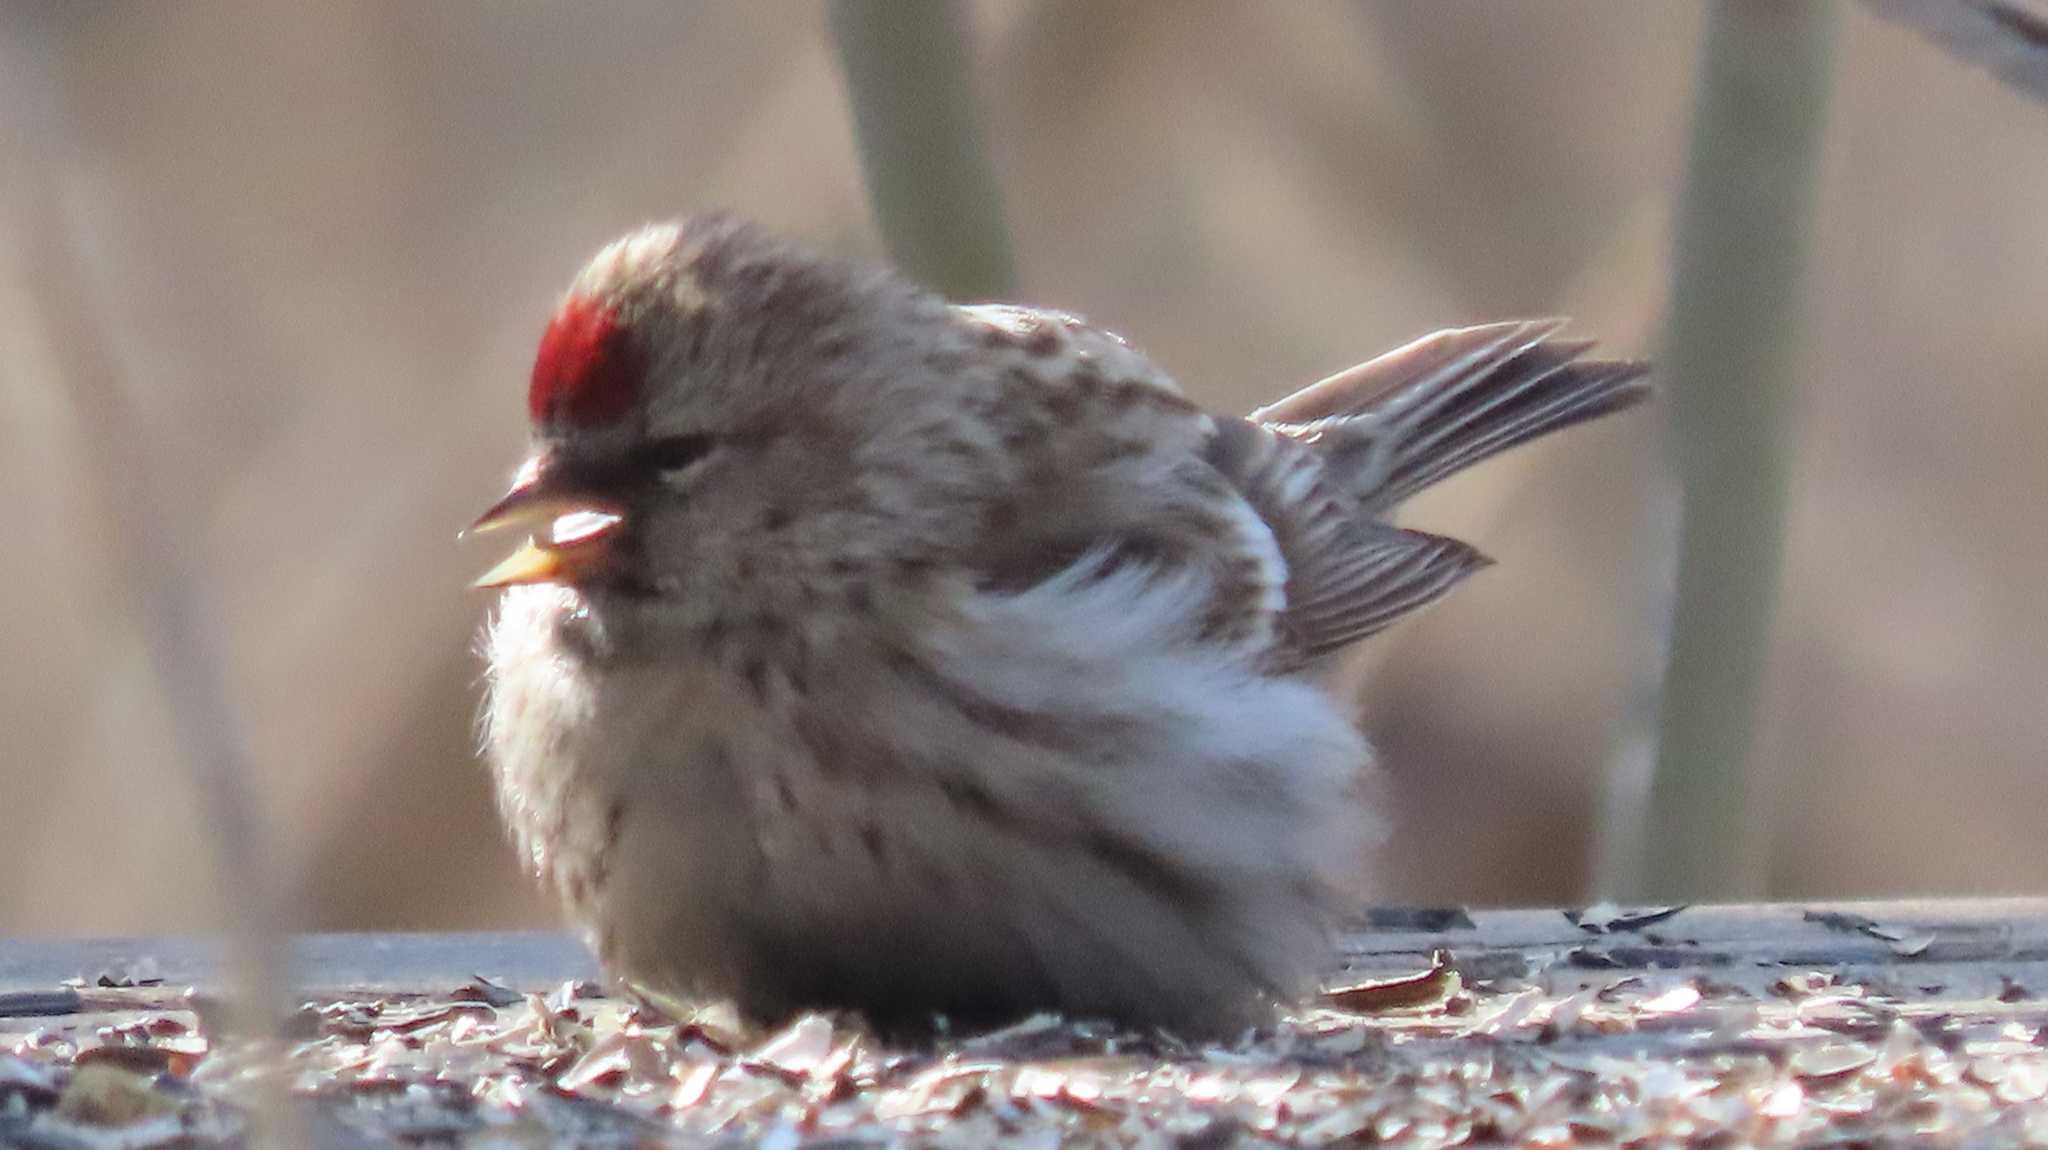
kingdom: Animalia
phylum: Chordata
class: Aves
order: Passeriformes
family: Fringillidae
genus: Acanthis
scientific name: Acanthis flammea
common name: Common redpoll
